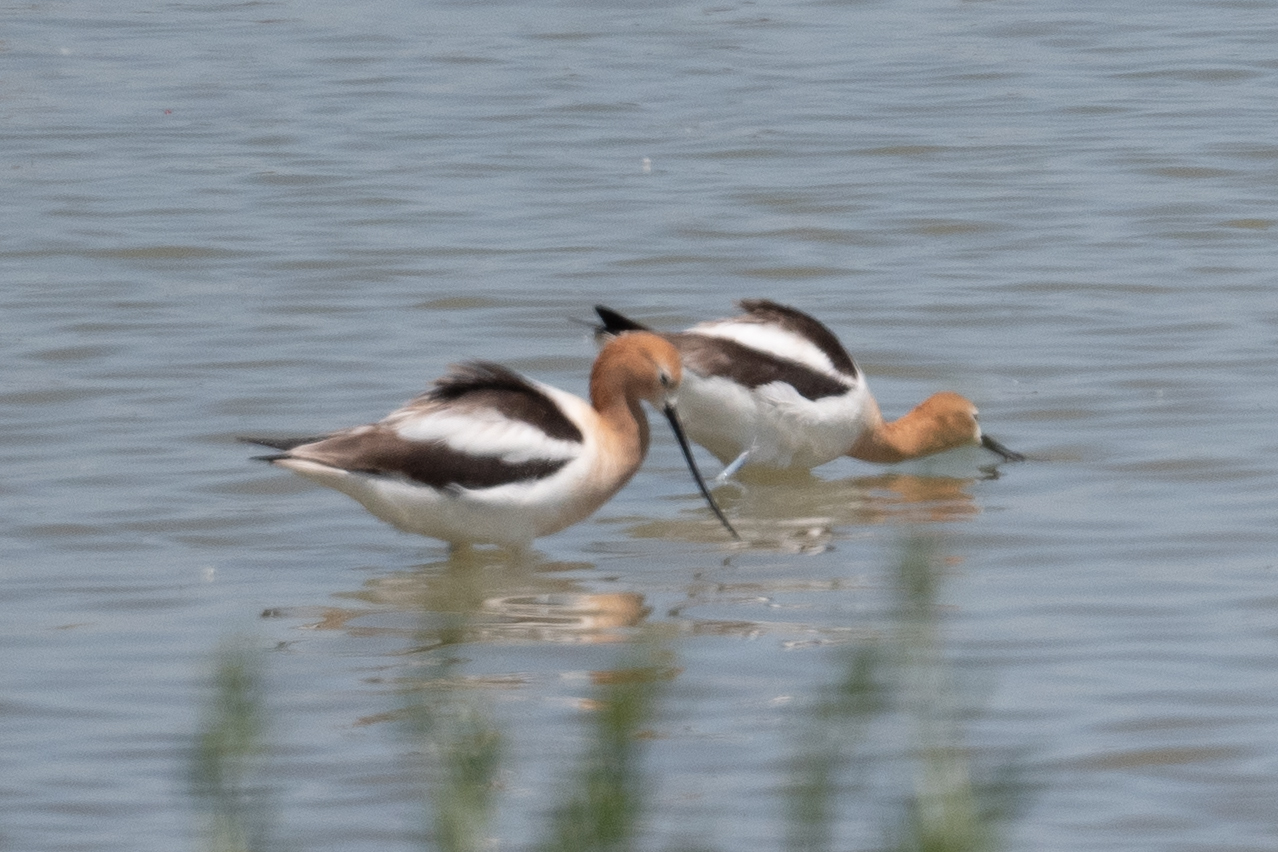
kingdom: Animalia
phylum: Chordata
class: Aves
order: Charadriiformes
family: Recurvirostridae
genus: Recurvirostra
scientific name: Recurvirostra americana
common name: American avocet
